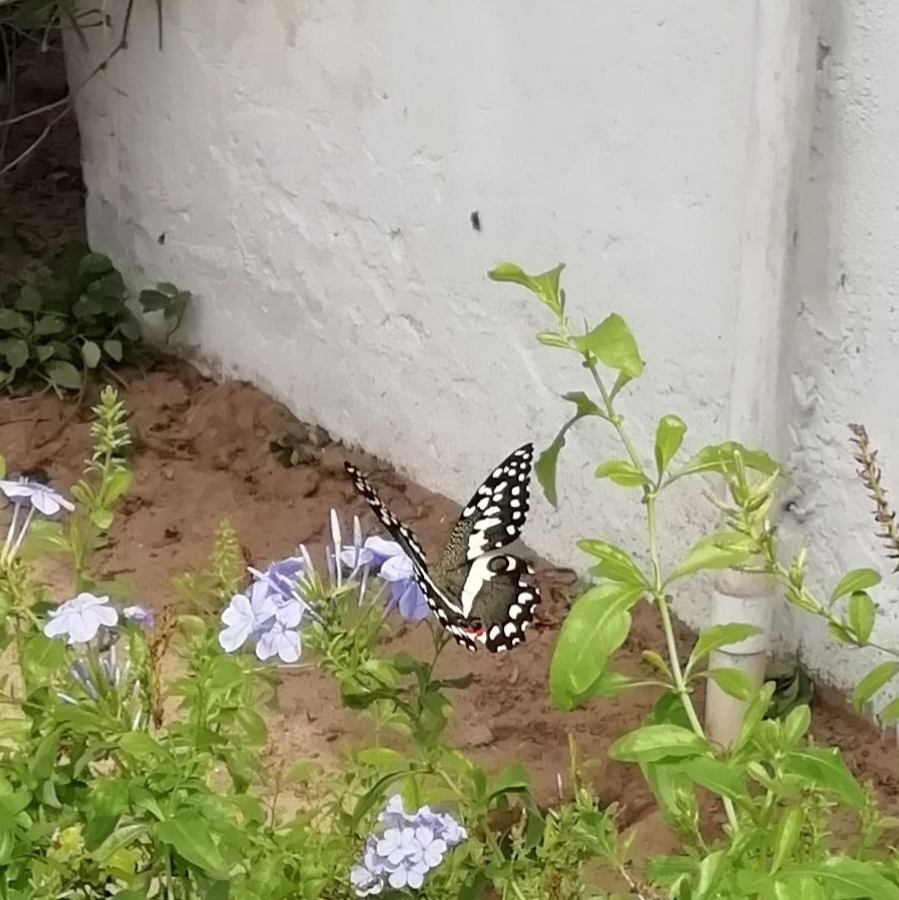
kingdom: Animalia
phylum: Arthropoda
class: Insecta
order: Lepidoptera
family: Papilionidae
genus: Papilio
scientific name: Papilio demodocus
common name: Christmas butterfly
